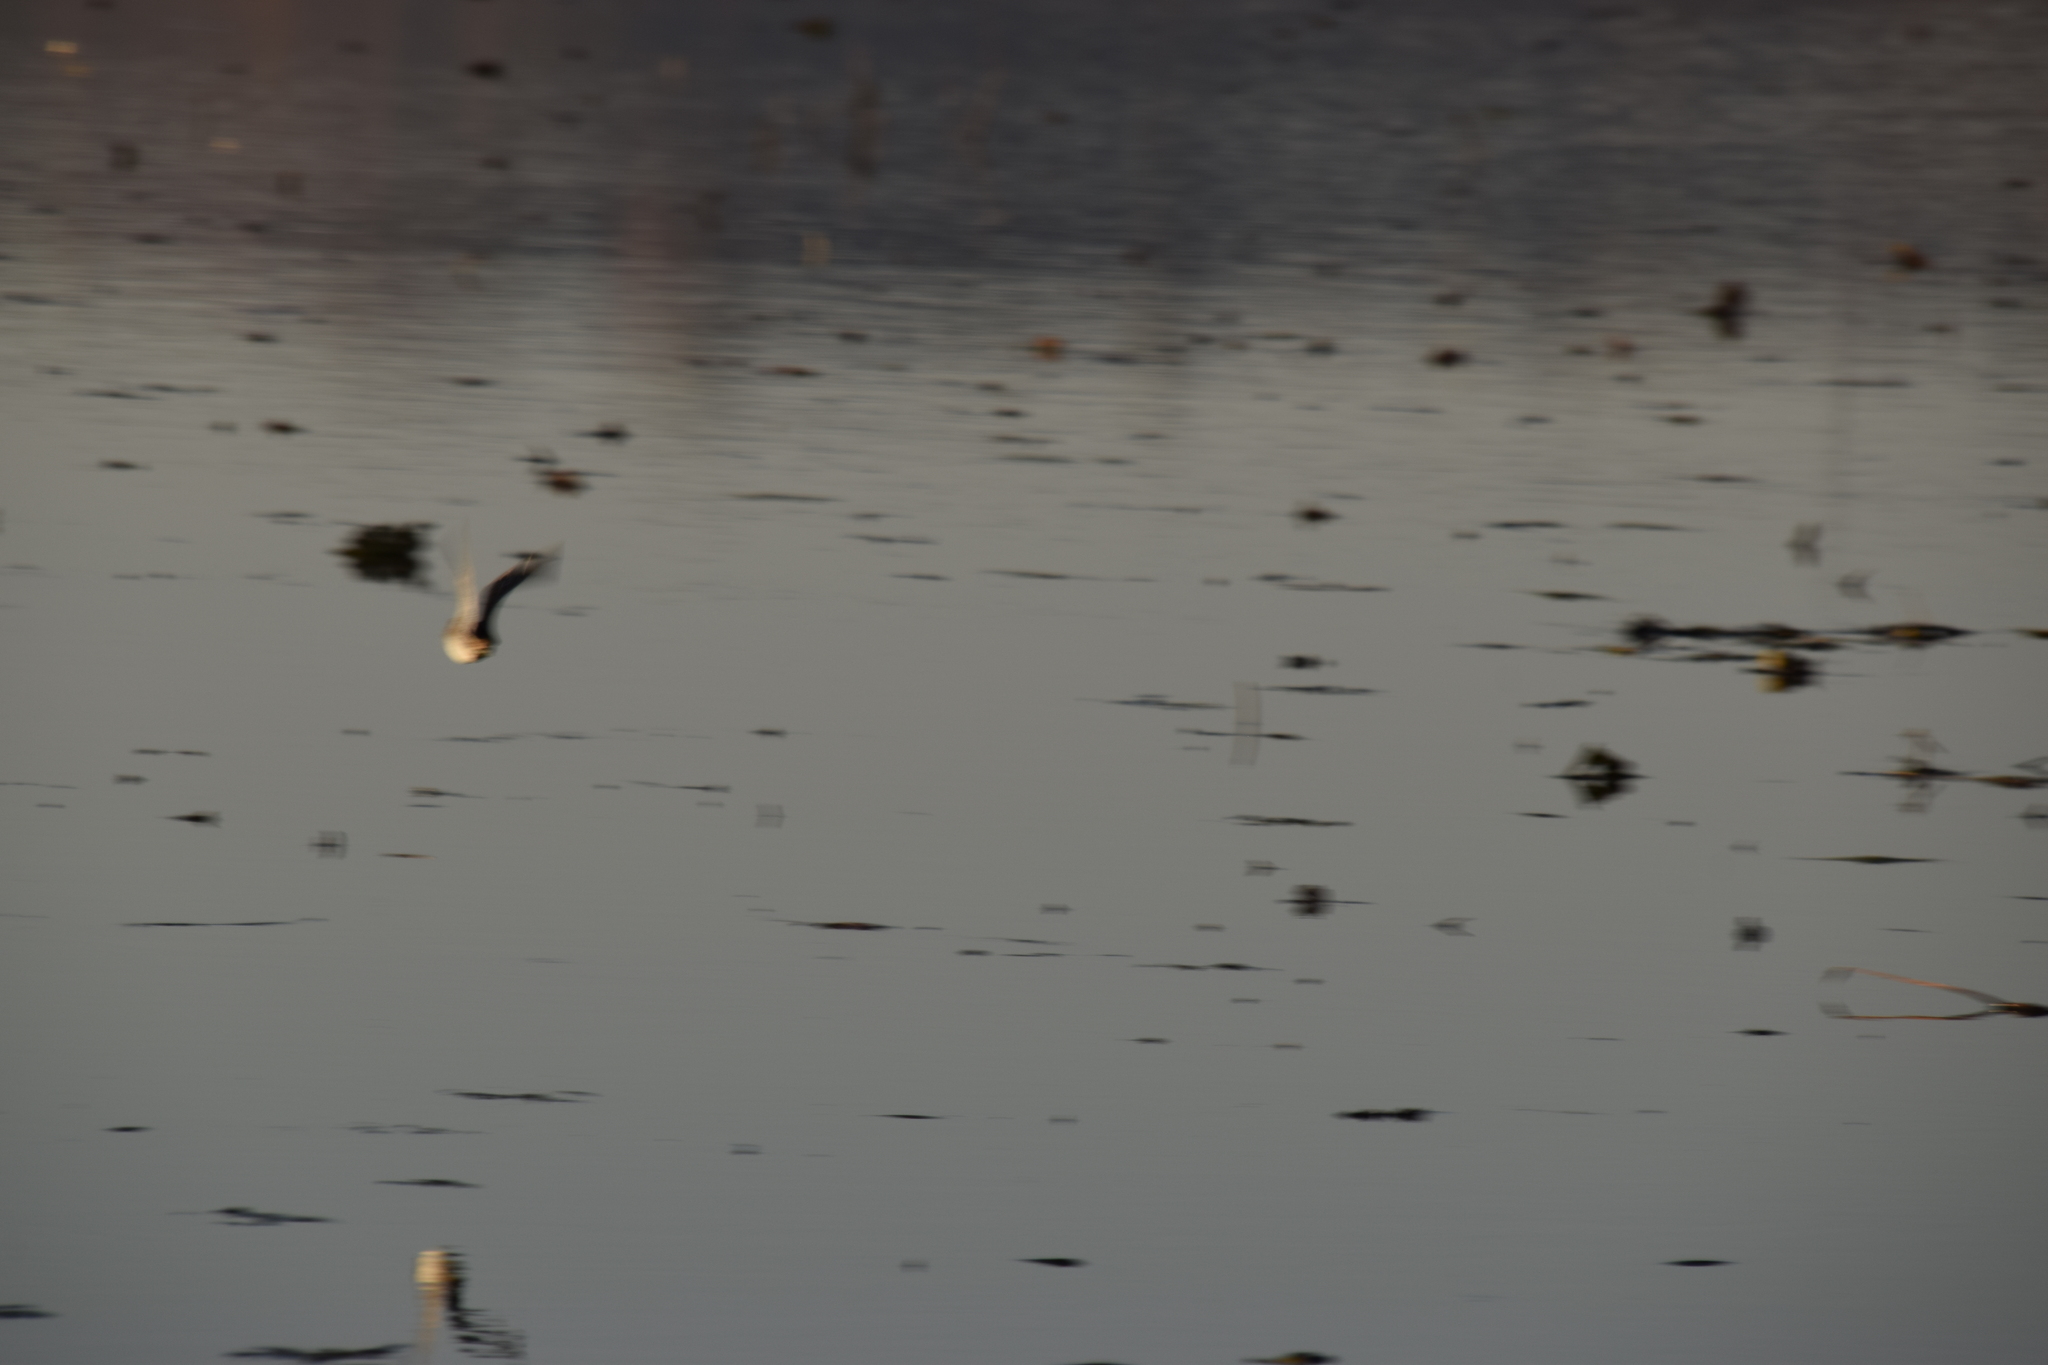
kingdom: Animalia
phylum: Chordata
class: Aves
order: Charadriiformes
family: Scolopacidae
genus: Gallinago
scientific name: Gallinago delicata
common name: Wilson's snipe
